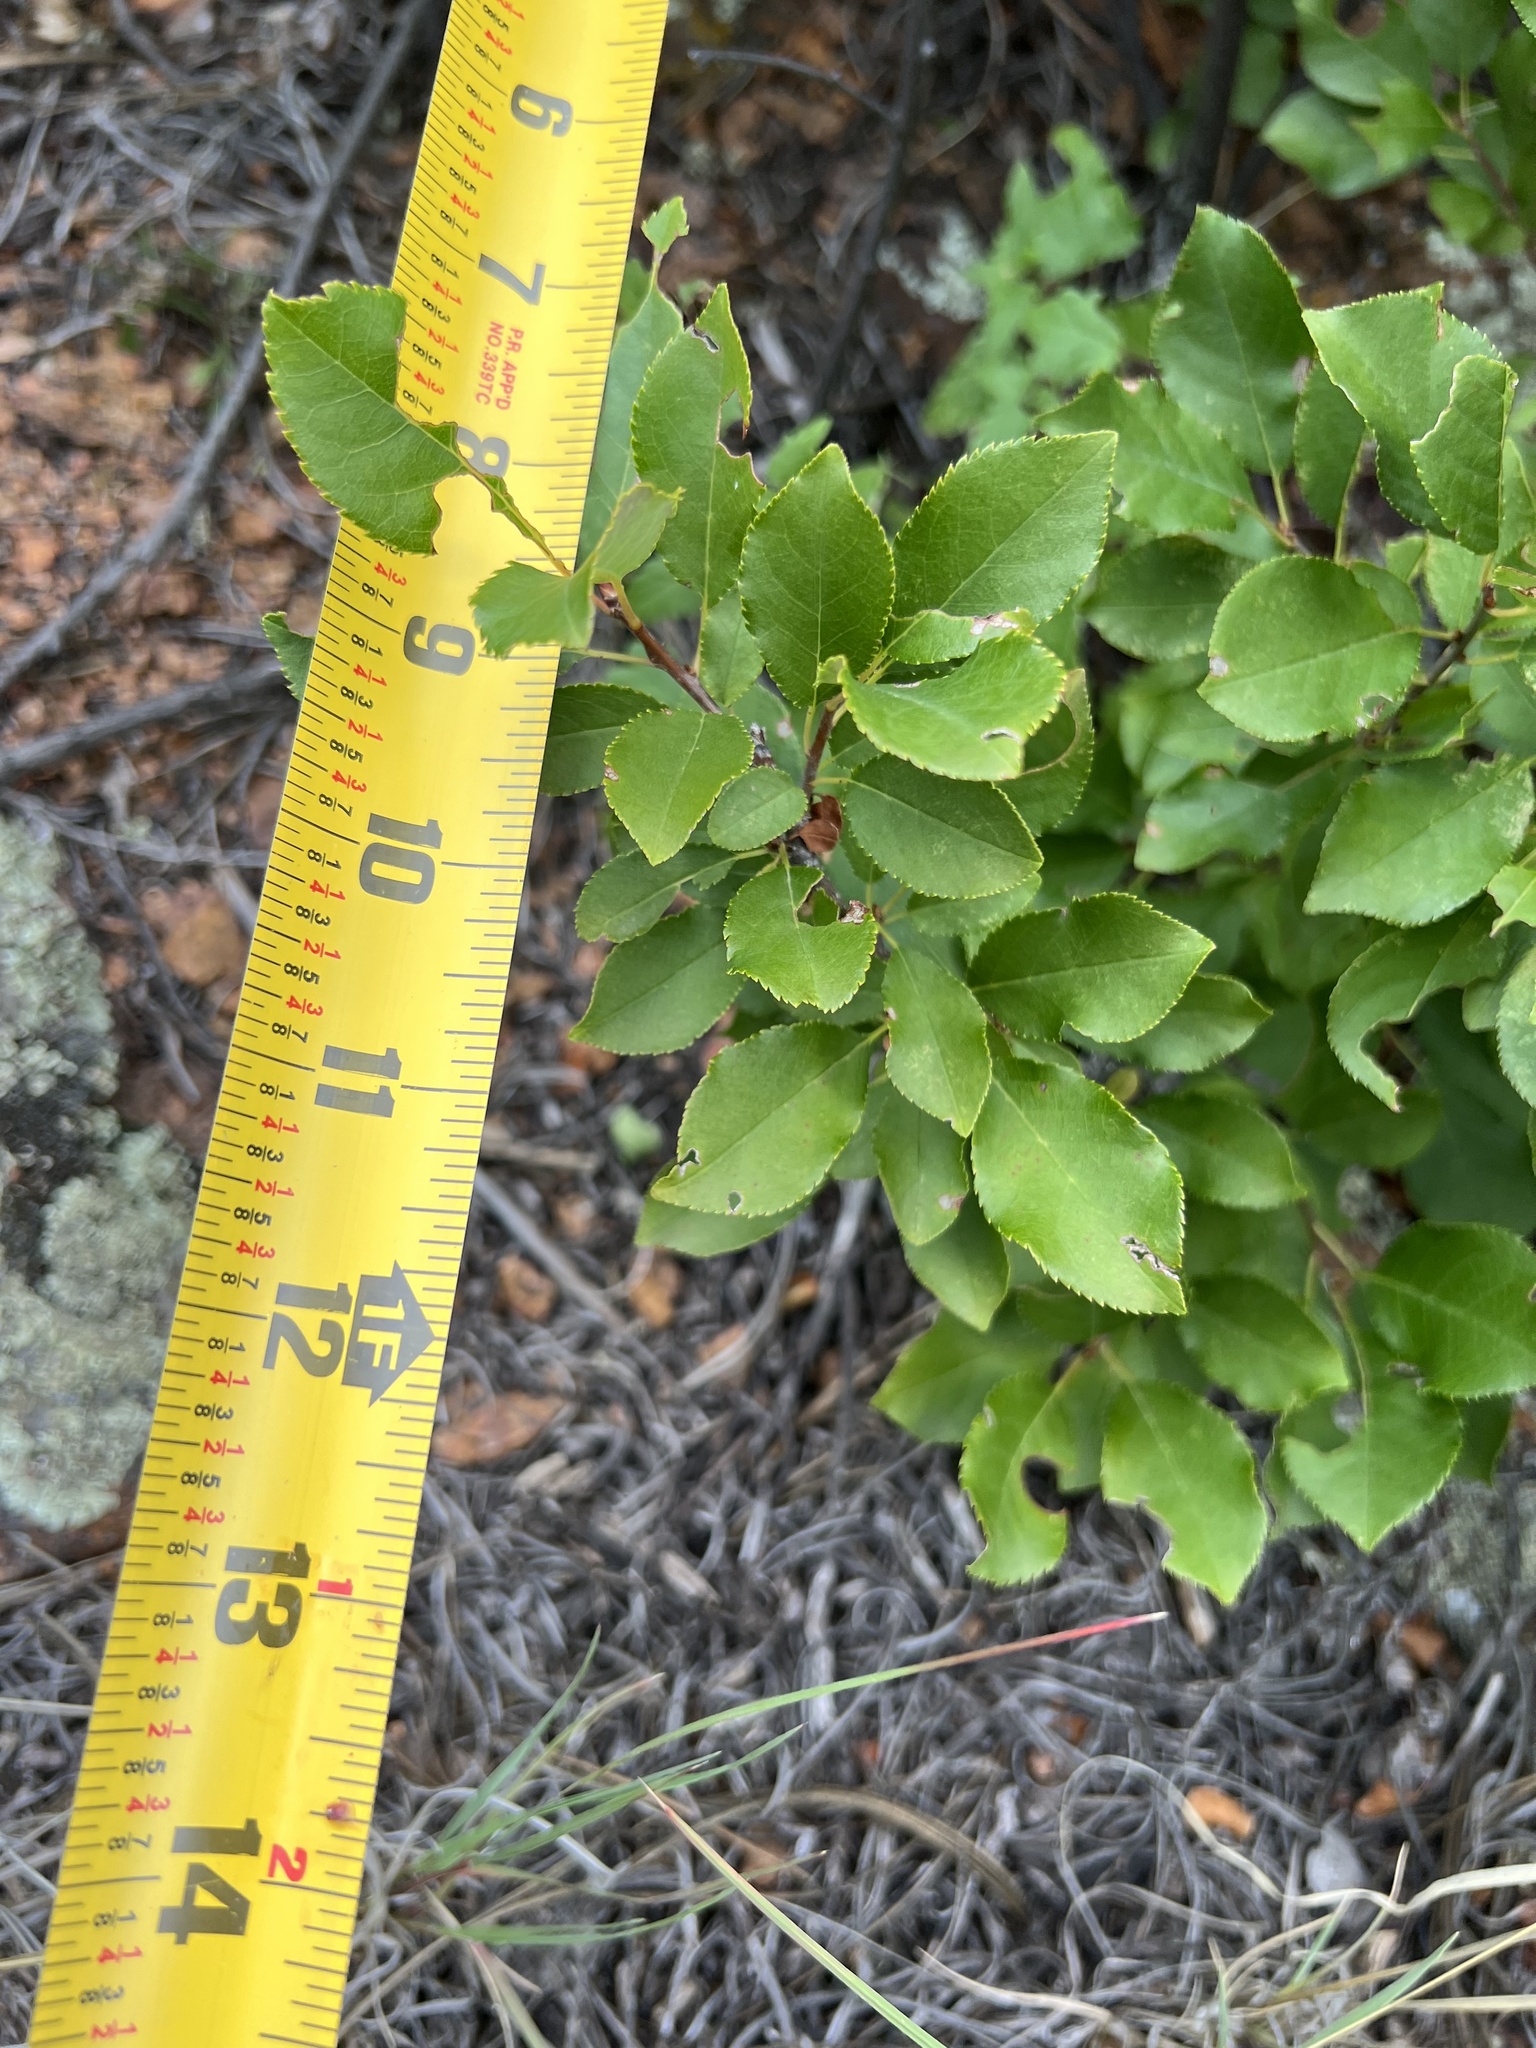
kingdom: Plantae
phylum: Tracheophyta
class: Magnoliopsida
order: Rosales
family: Rosaceae
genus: Prunus
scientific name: Prunus virginiana
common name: Chokecherry
